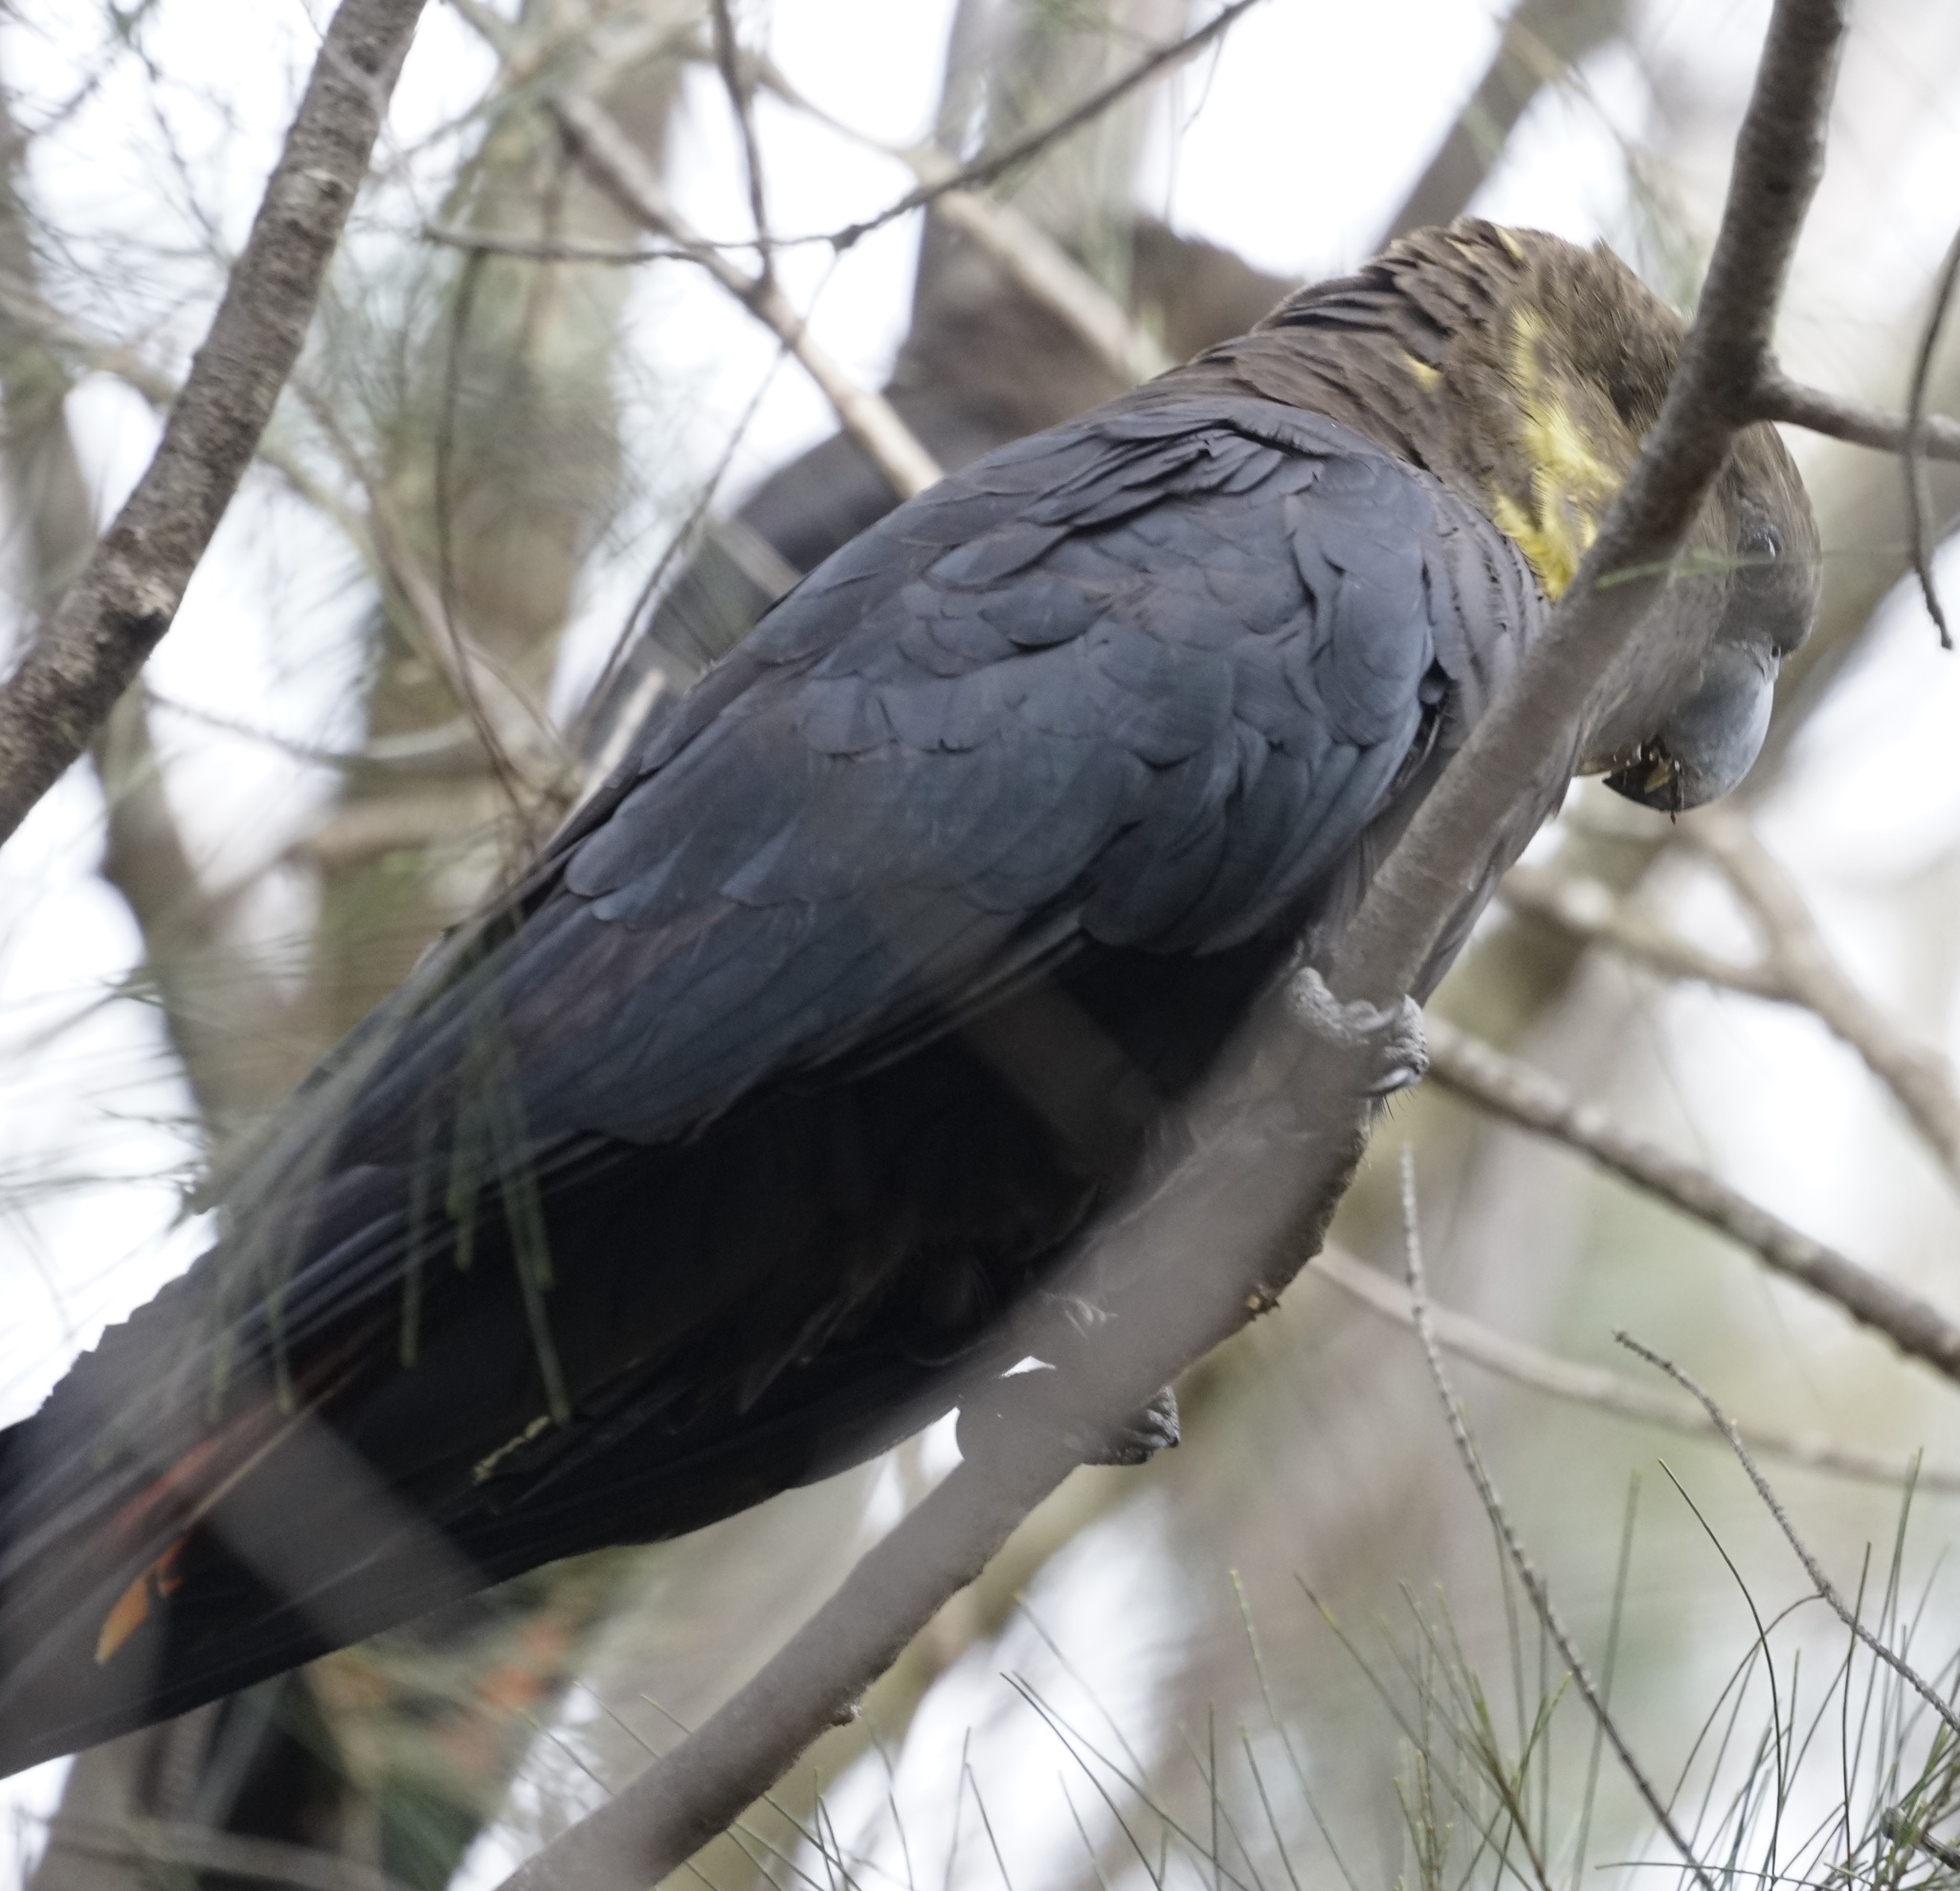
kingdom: Animalia
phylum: Chordata
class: Aves
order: Psittaciformes
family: Psittacidae
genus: Calyptorhynchus
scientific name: Calyptorhynchus lathami
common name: Glossy black cockatoo
